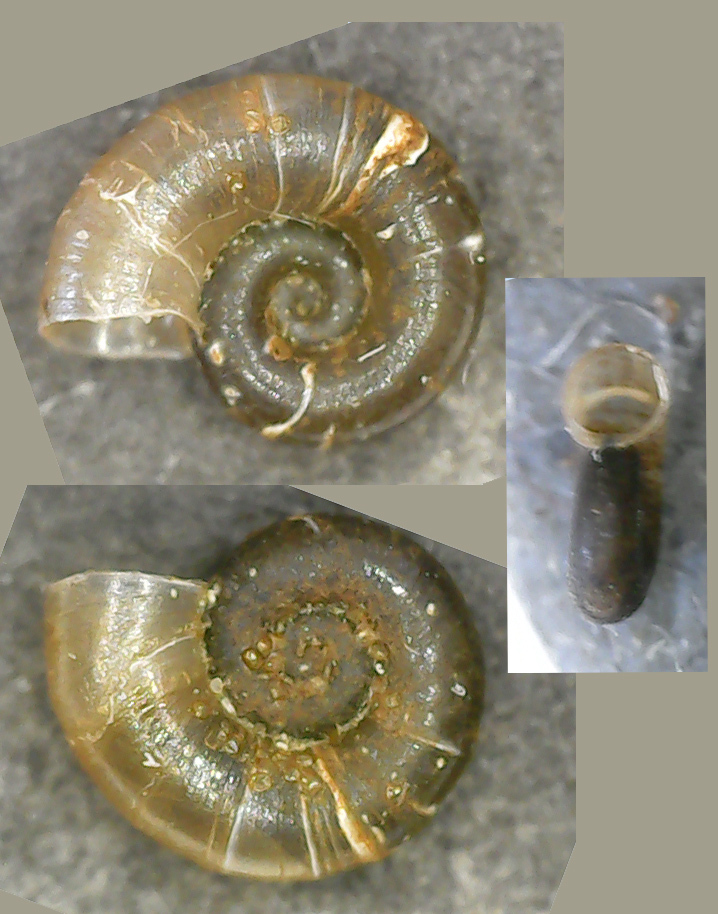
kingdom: Animalia
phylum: Mollusca
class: Gastropoda
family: Valvatidae
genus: Valvata
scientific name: Valvata cristata
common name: Flat valve snail
